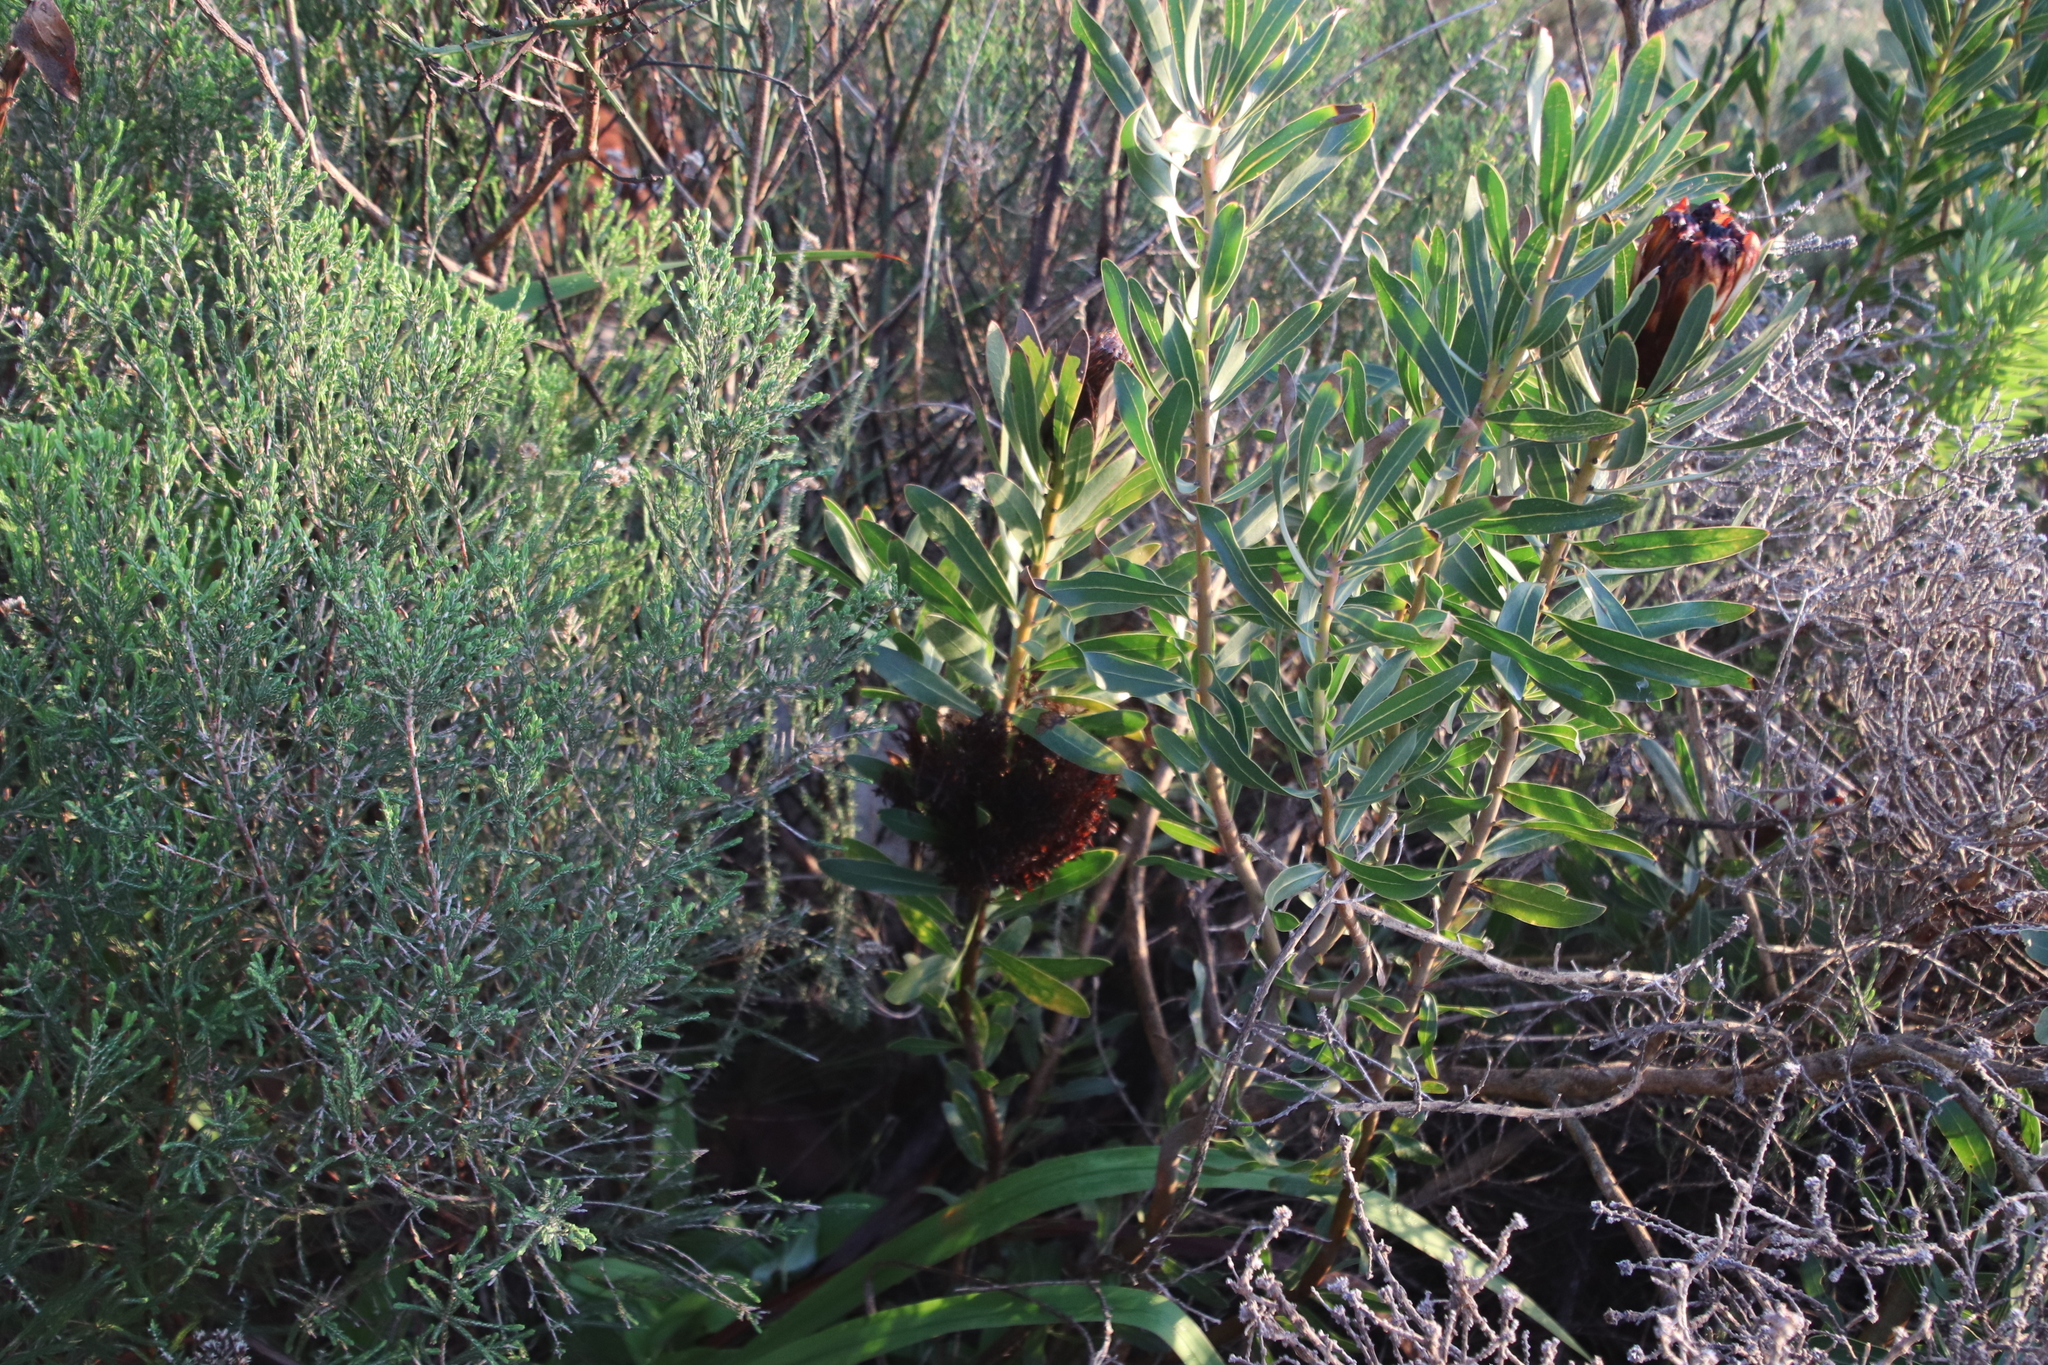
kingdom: Plantae
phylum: Tracheophyta
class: Magnoliopsida
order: Proteales
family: Proteaceae
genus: Protea
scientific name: Protea lepidocarpodendron
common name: Black-bearded protea
